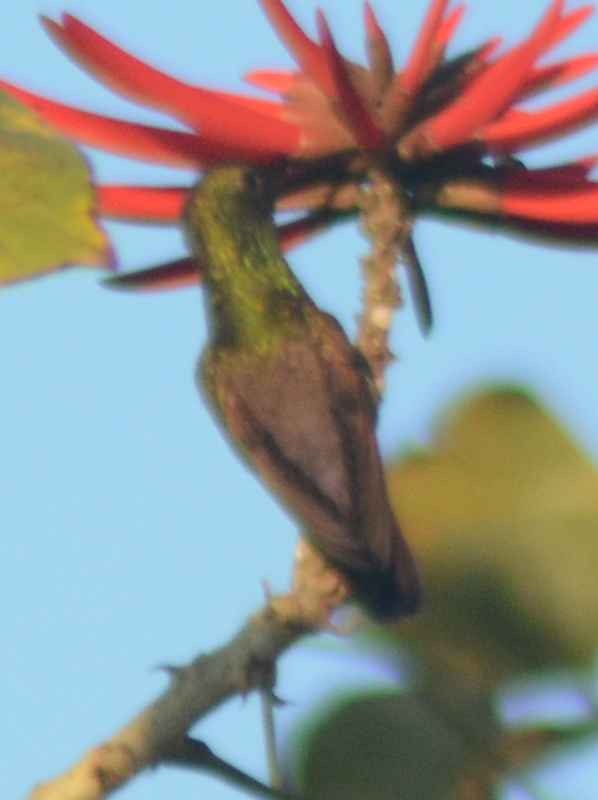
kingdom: Animalia
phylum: Chordata
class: Aves
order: Apodiformes
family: Trochilidae
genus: Saucerottia
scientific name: Saucerottia beryllina
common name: Berylline hummingbird
